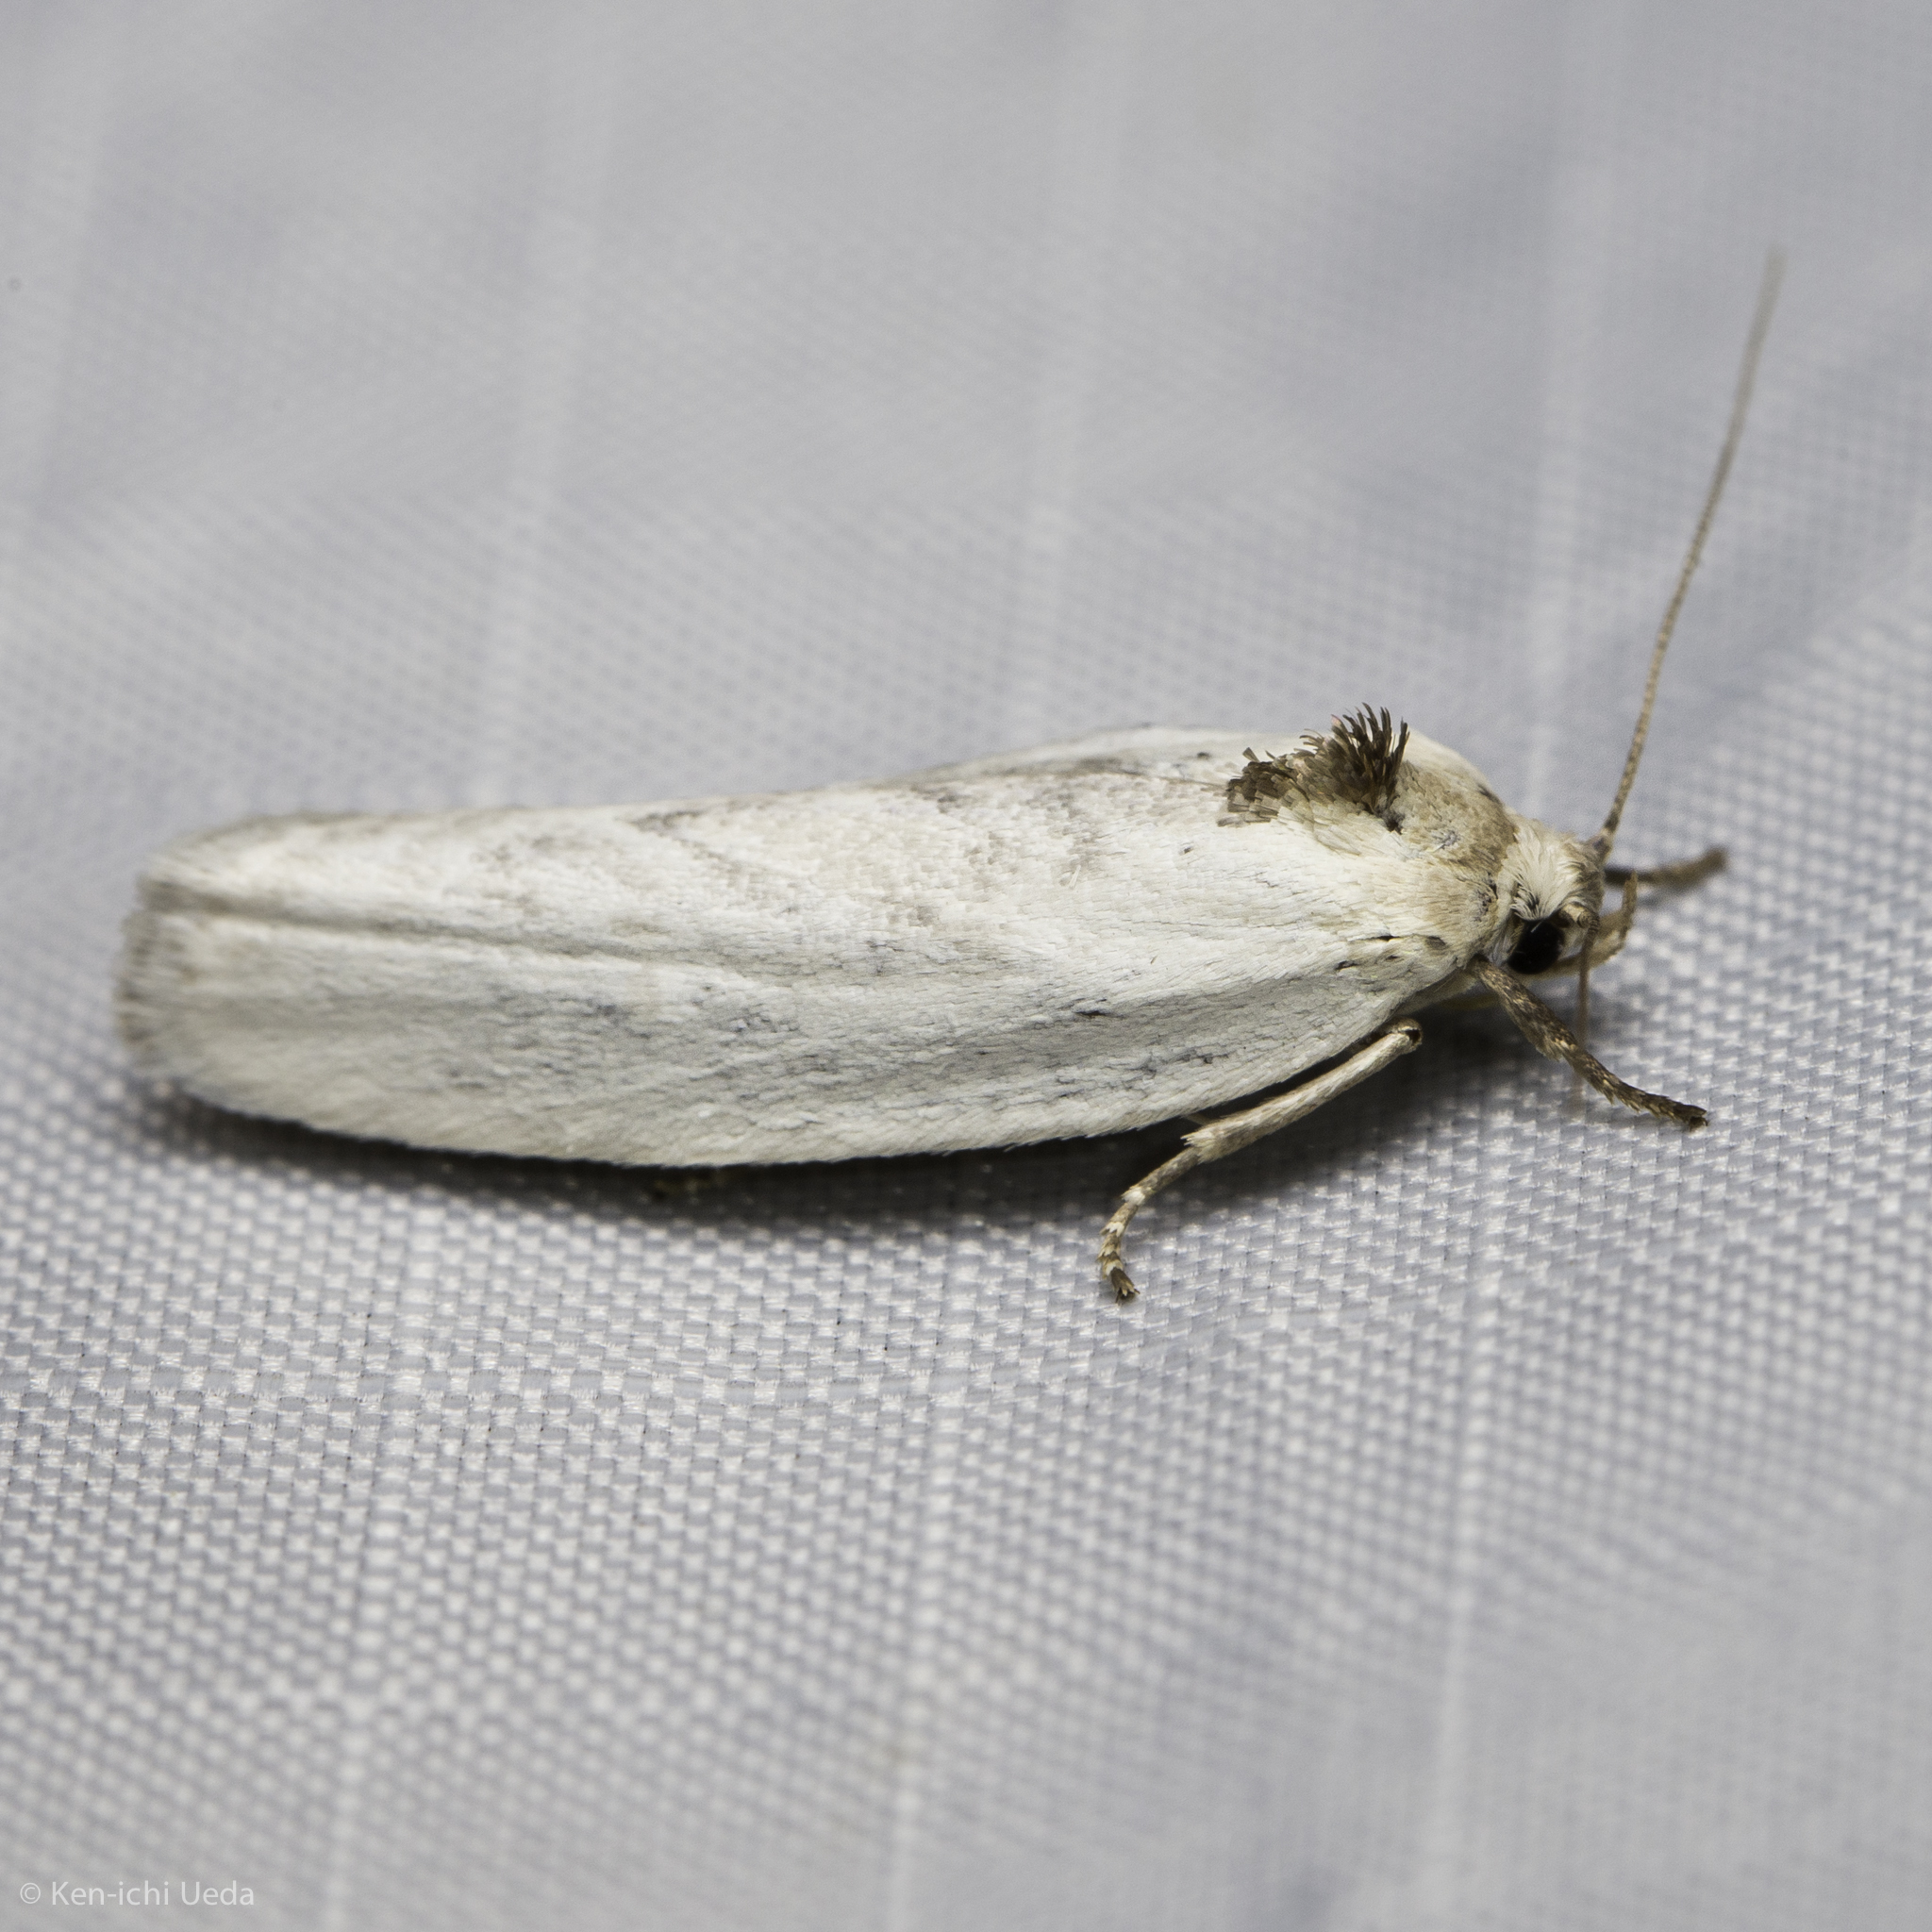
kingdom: Animalia
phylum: Arthropoda
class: Insecta
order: Lepidoptera
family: Depressariidae
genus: Antaeotricha
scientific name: Antaeotricha manzanitae
